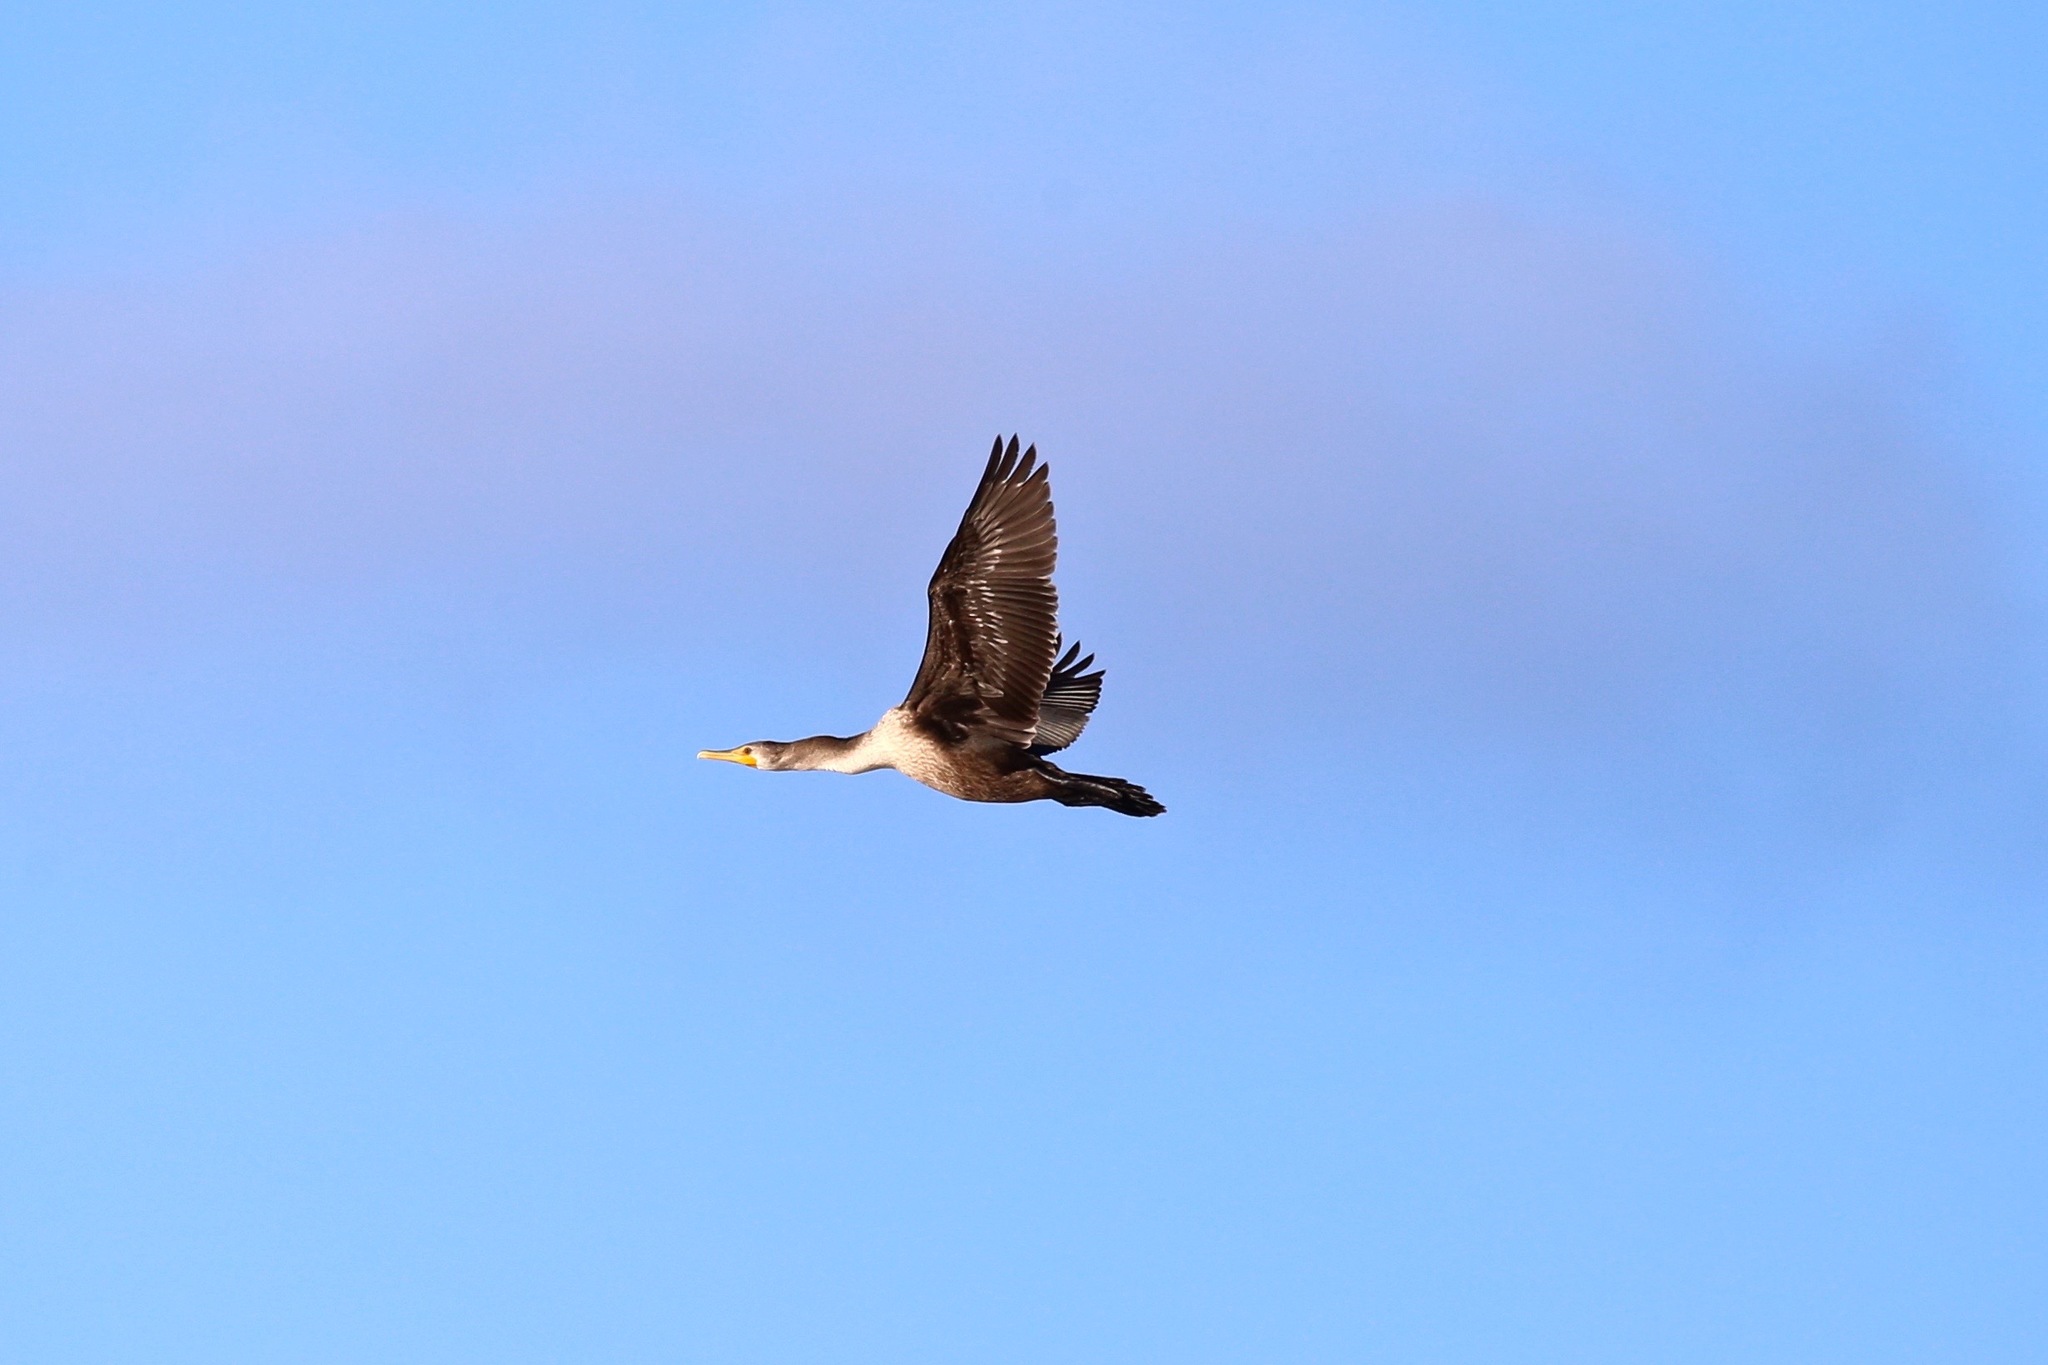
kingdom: Animalia
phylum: Chordata
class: Aves
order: Suliformes
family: Phalacrocoracidae
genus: Phalacrocorax
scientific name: Phalacrocorax auritus
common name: Double-crested cormorant
